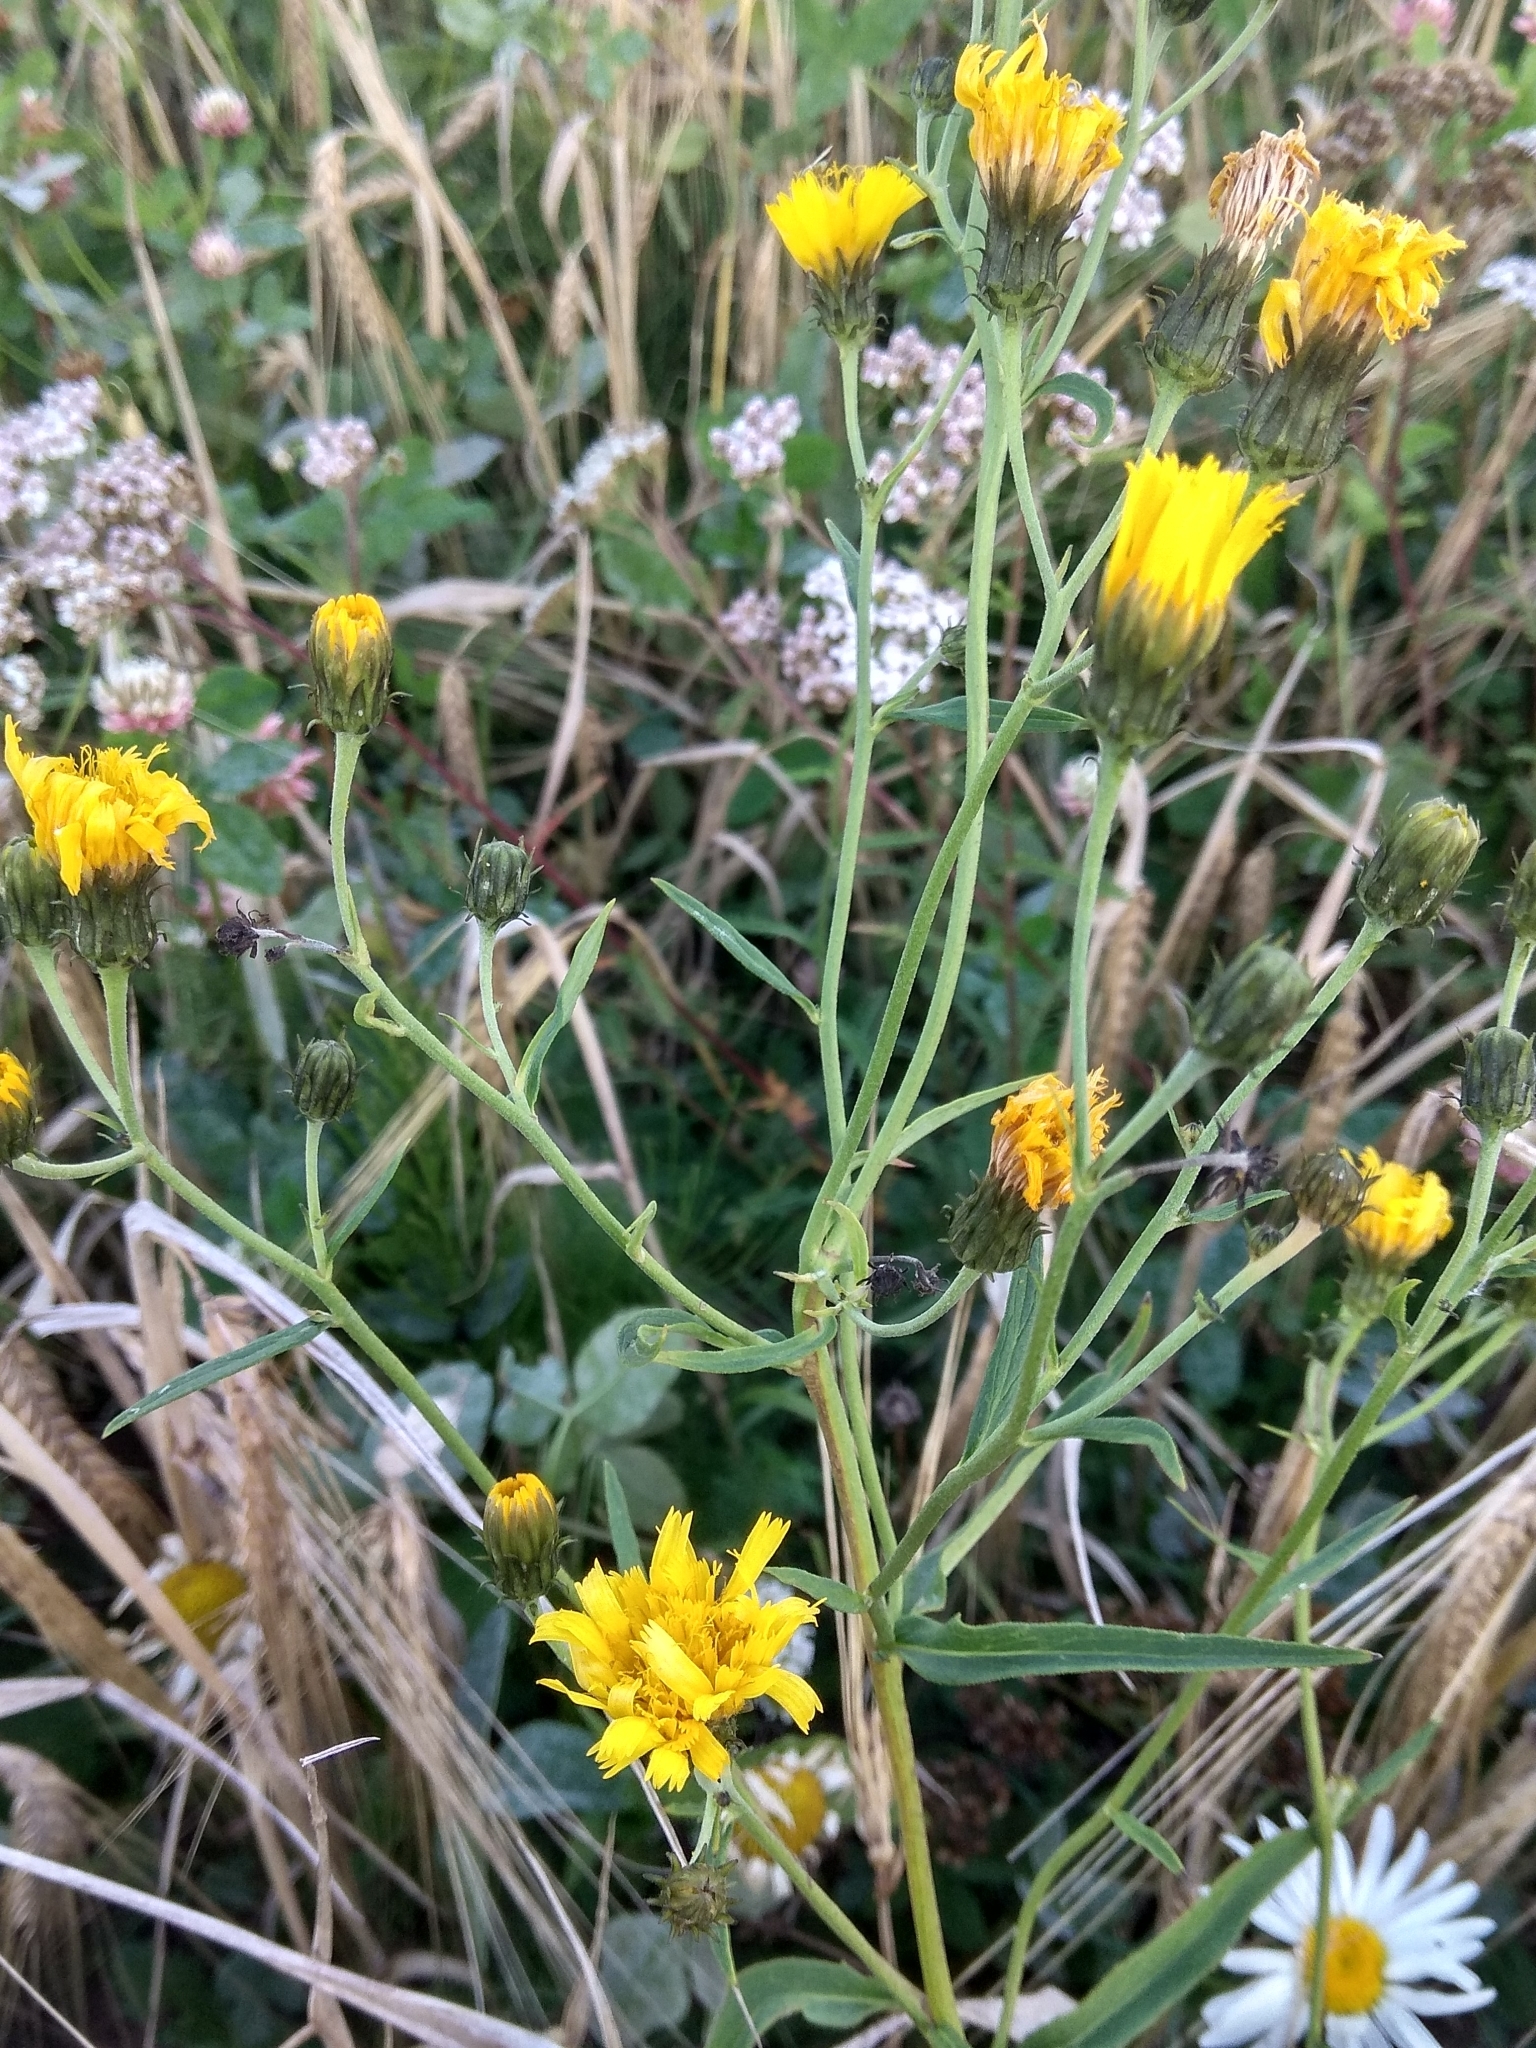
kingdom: Plantae
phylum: Tracheophyta
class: Magnoliopsida
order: Asterales
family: Asteraceae
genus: Hieracium
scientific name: Hieracium umbellatum
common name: Northern hawkweed
